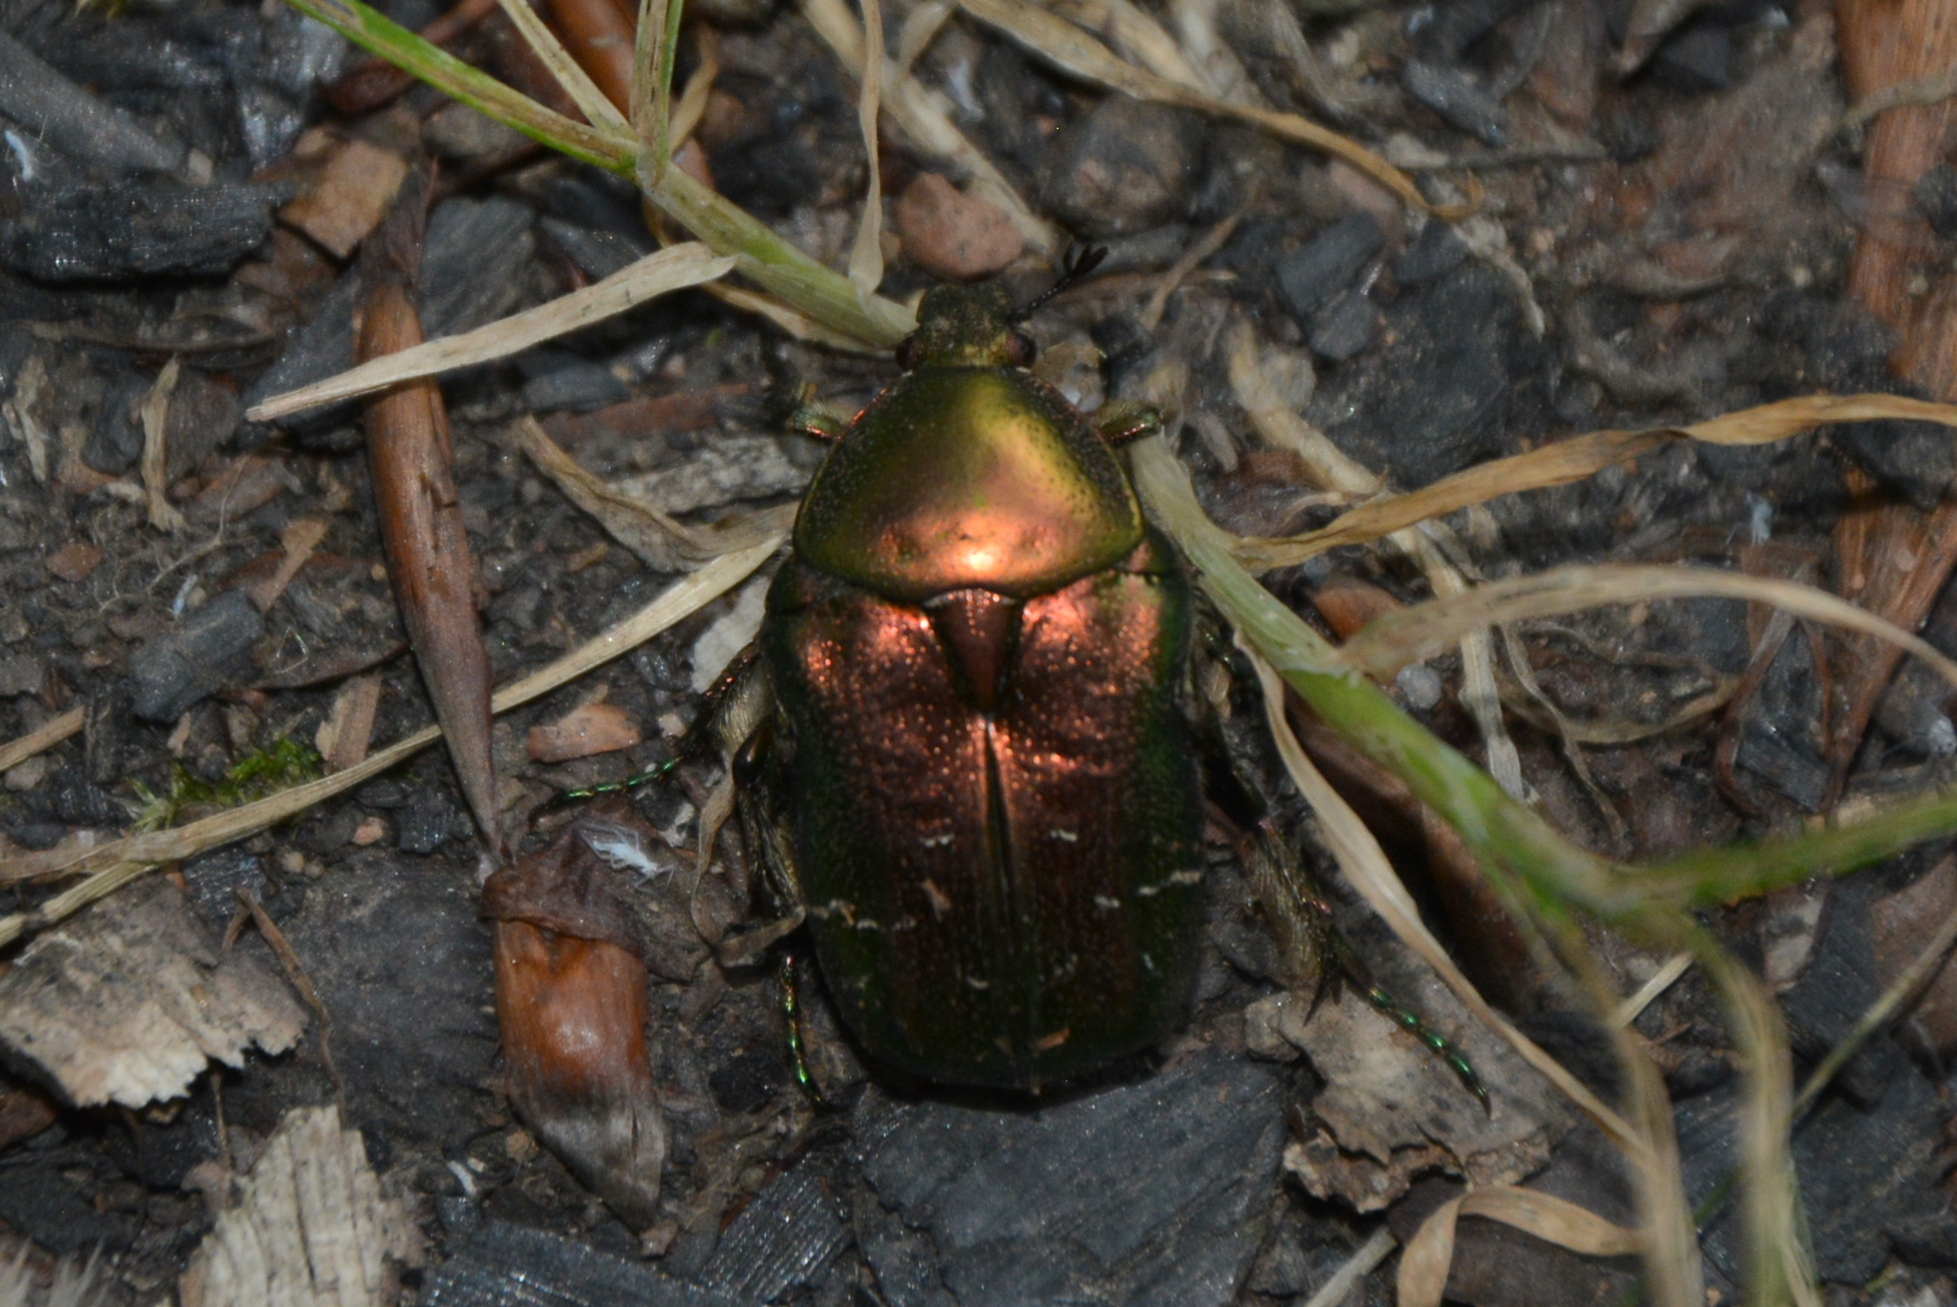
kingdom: Animalia
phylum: Arthropoda
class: Insecta
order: Coleoptera
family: Scarabaeidae
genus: Cetonia
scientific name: Cetonia aurata
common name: Rose chafer
